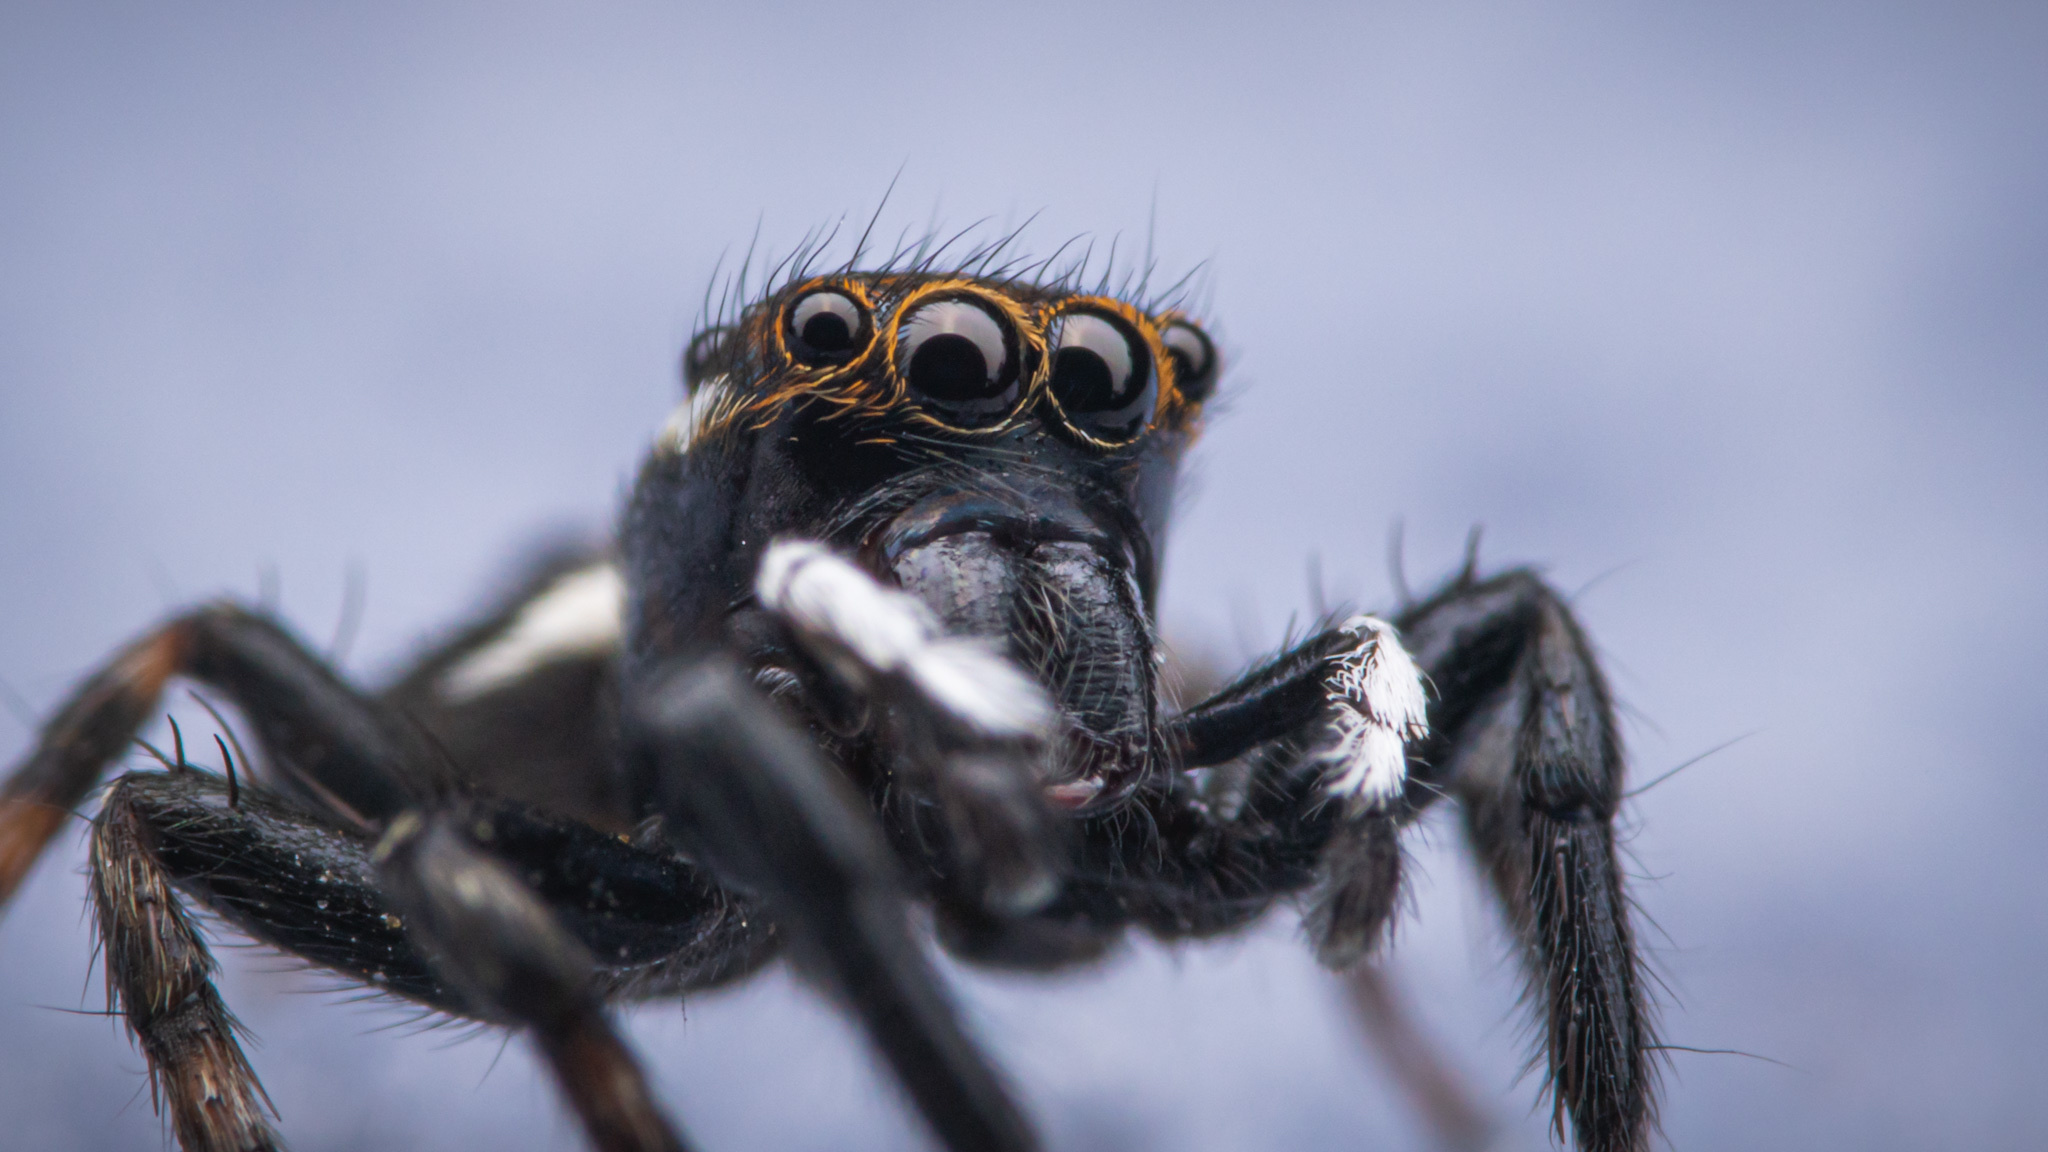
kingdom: Animalia
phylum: Arthropoda
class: Arachnida
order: Araneae
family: Salticidae
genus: Hasarius
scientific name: Hasarius adansoni
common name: Jumping spider
